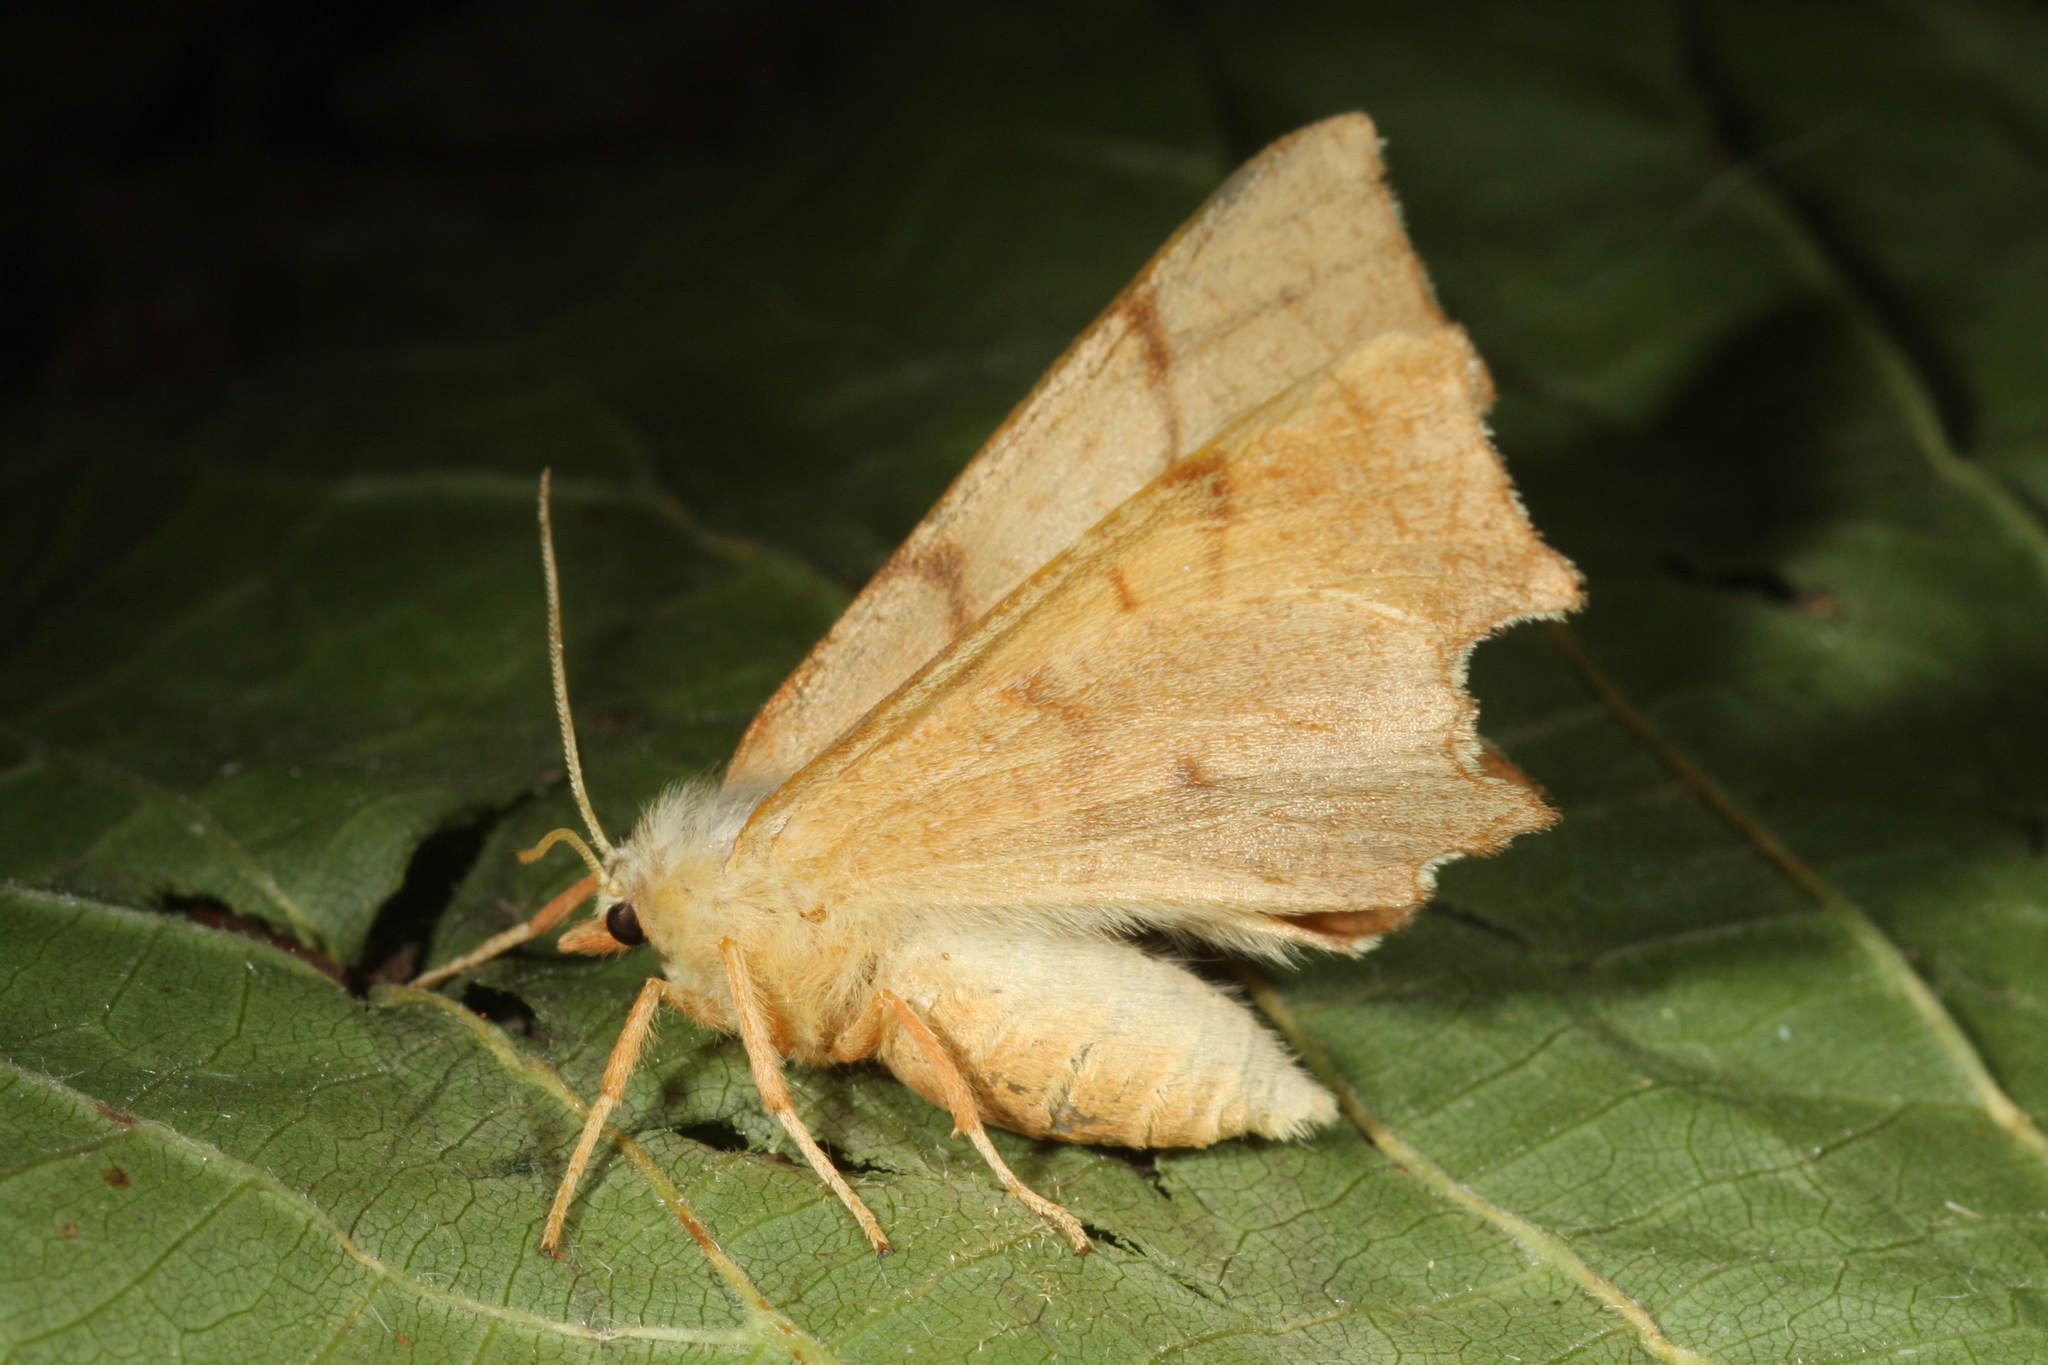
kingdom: Animalia
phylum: Arthropoda
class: Insecta
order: Lepidoptera
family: Geometridae
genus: Ennomos
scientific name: Ennomos erosaria
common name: September thorn
